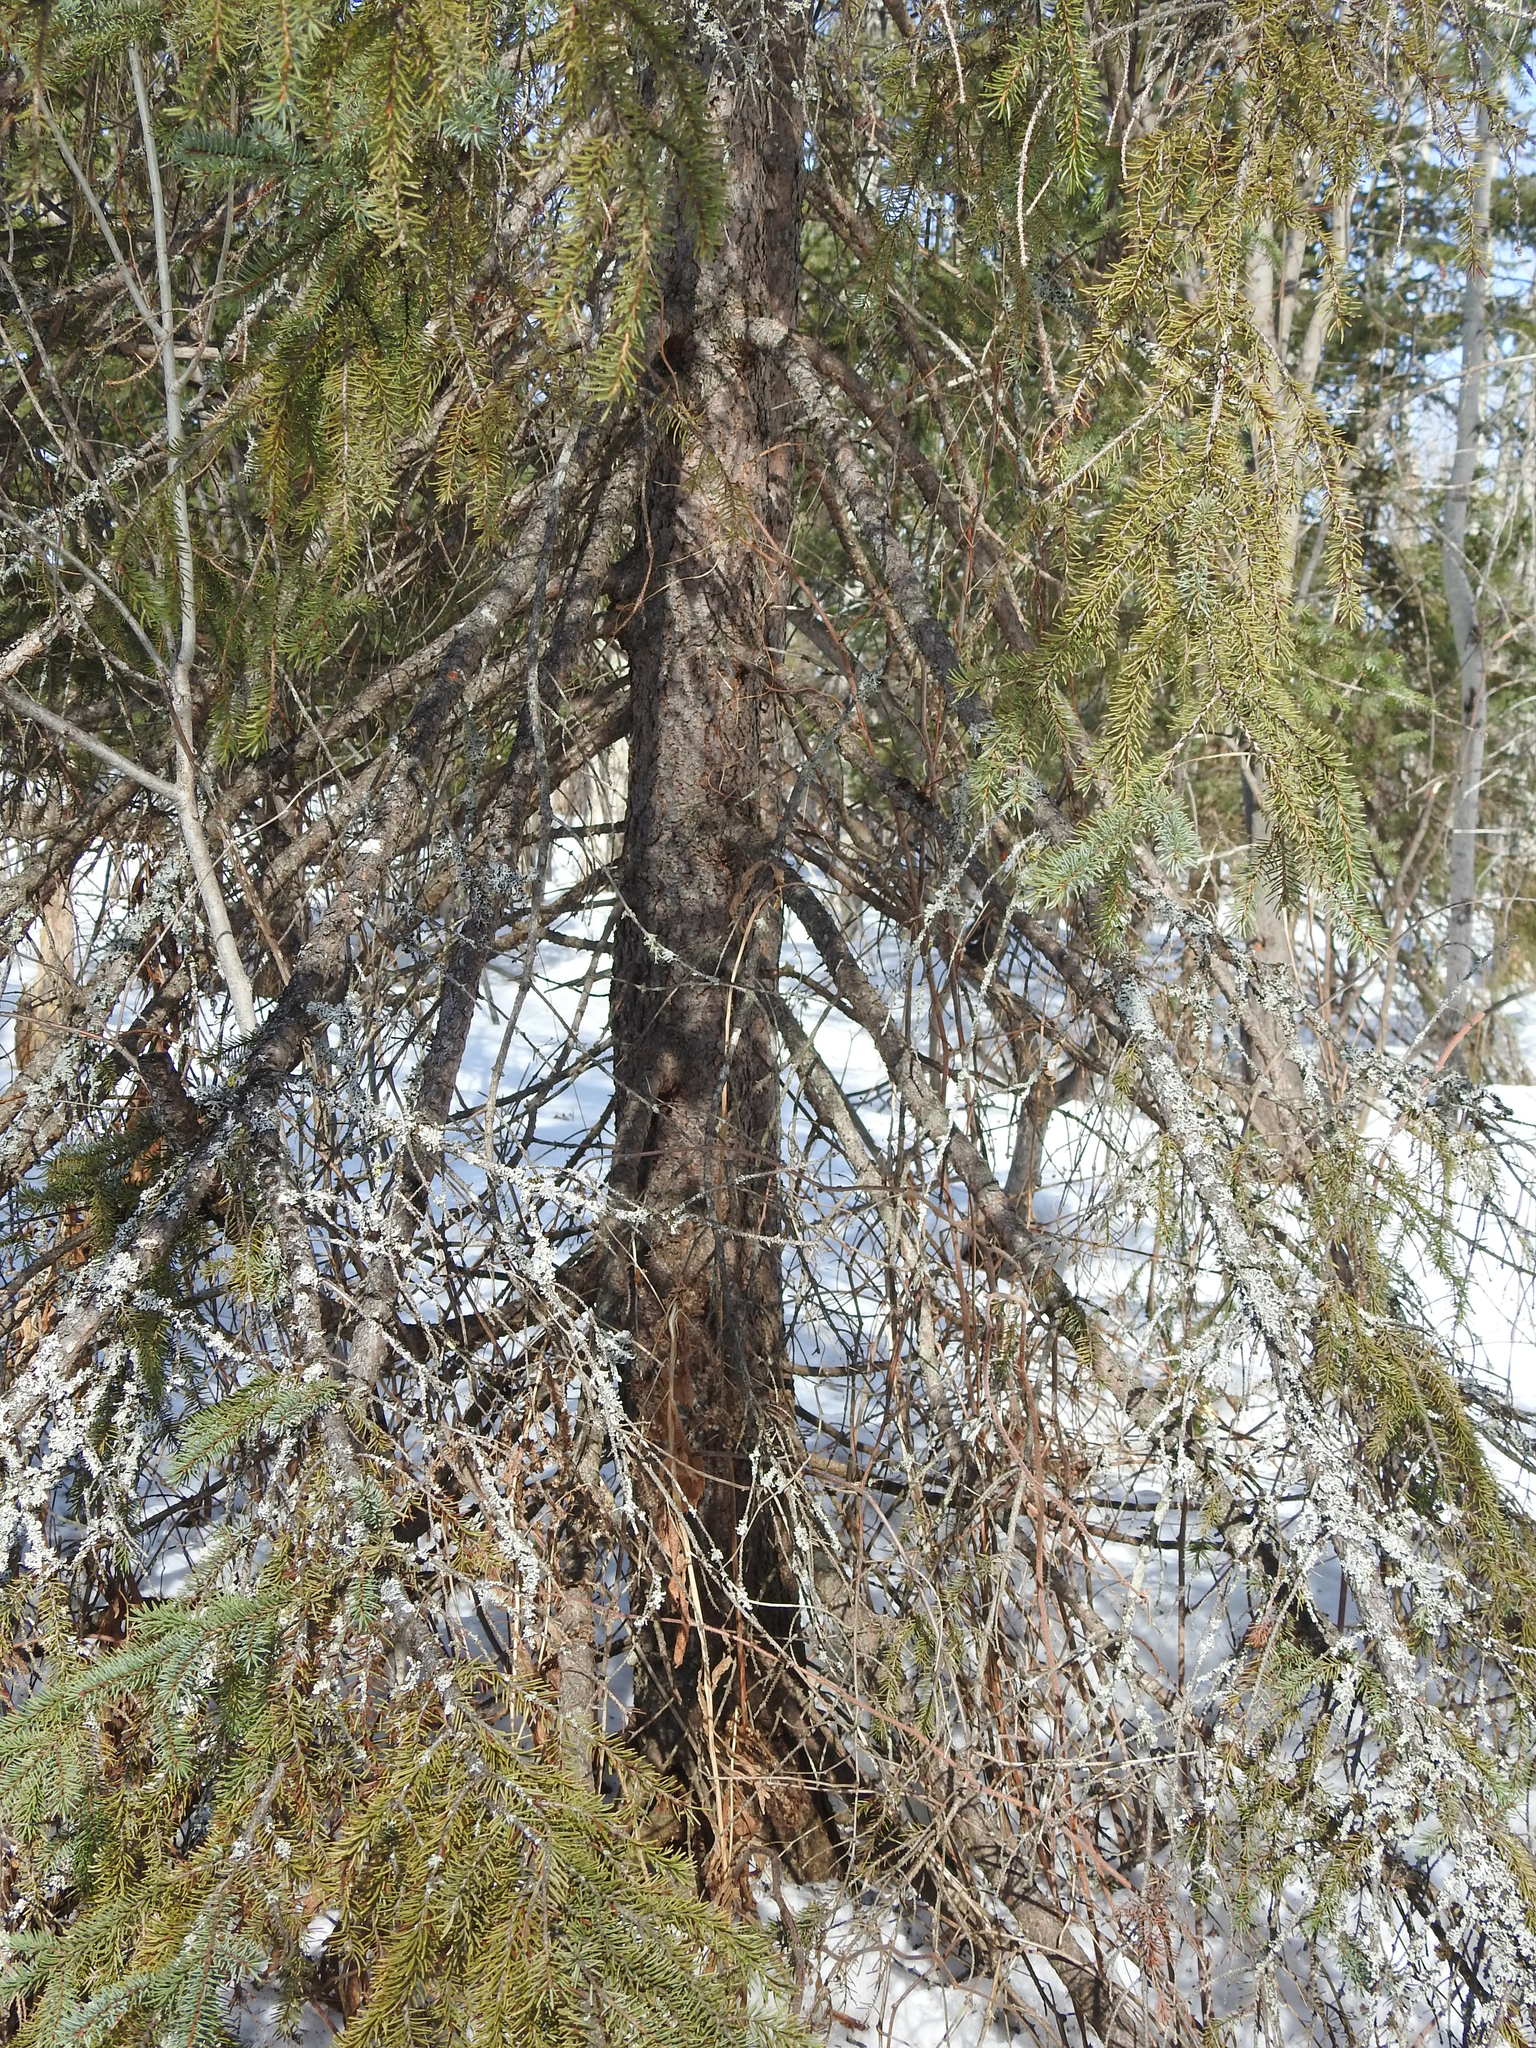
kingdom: Plantae
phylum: Tracheophyta
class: Pinopsida
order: Pinales
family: Pinaceae
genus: Picea
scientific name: Picea glauca
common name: White spruce
